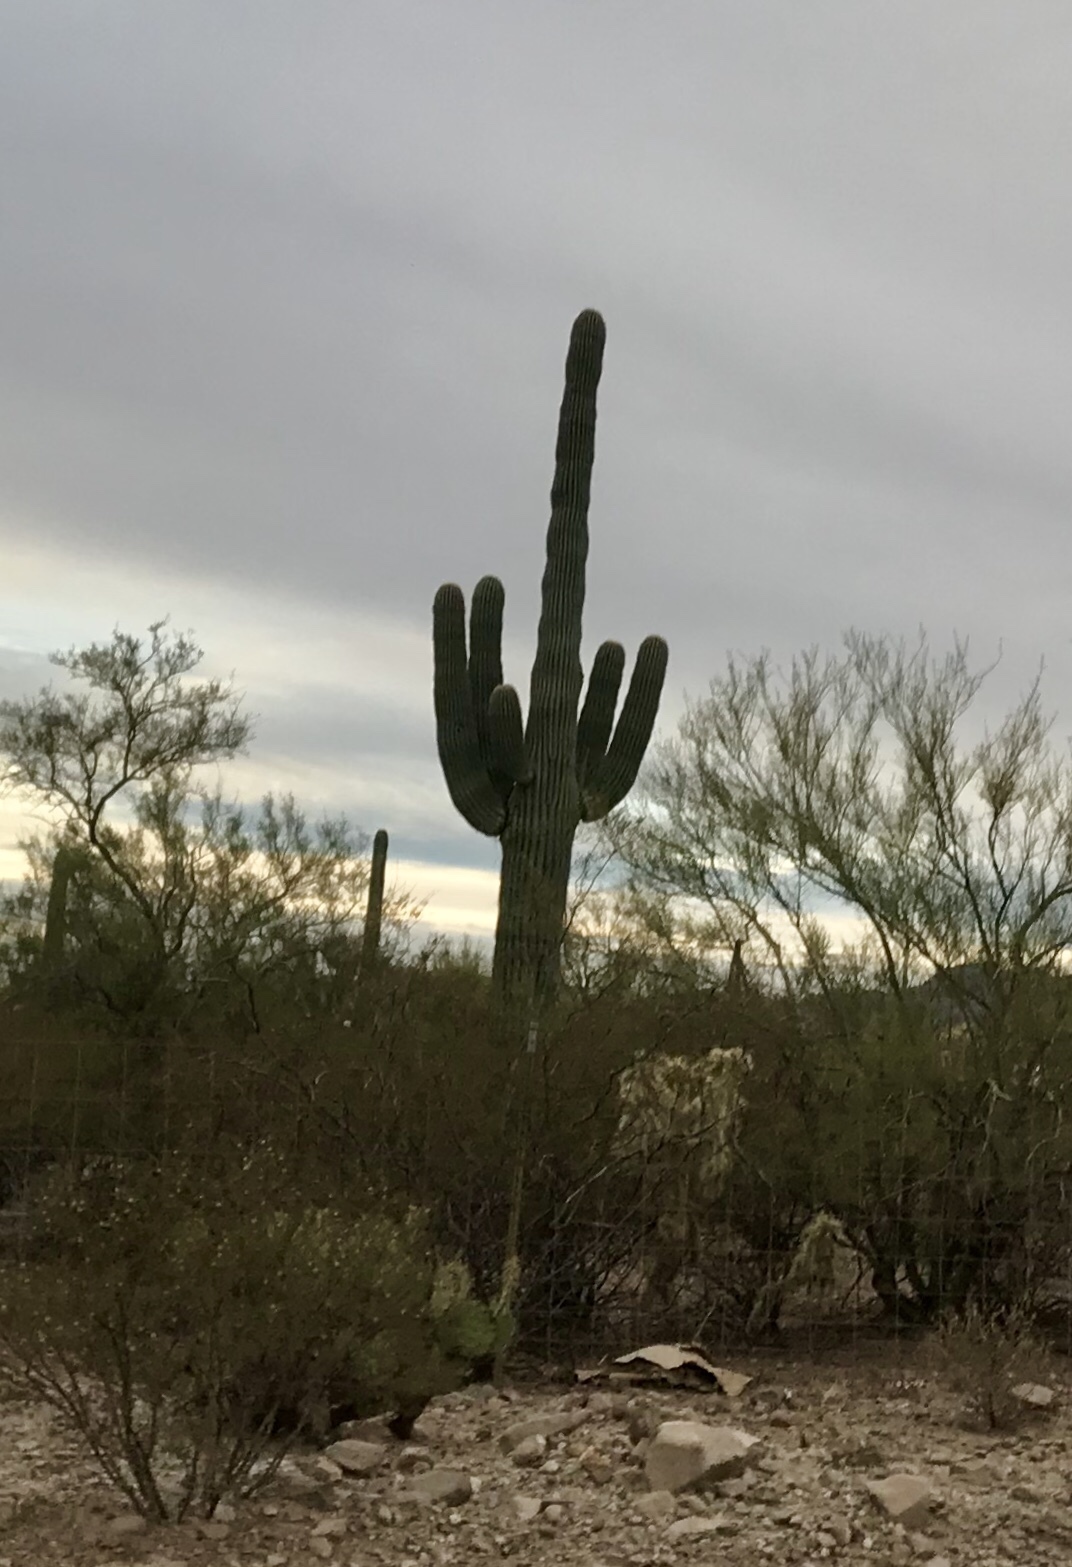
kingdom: Plantae
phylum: Tracheophyta
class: Magnoliopsida
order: Caryophyllales
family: Cactaceae
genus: Carnegiea
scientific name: Carnegiea gigantea
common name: Saguaro
